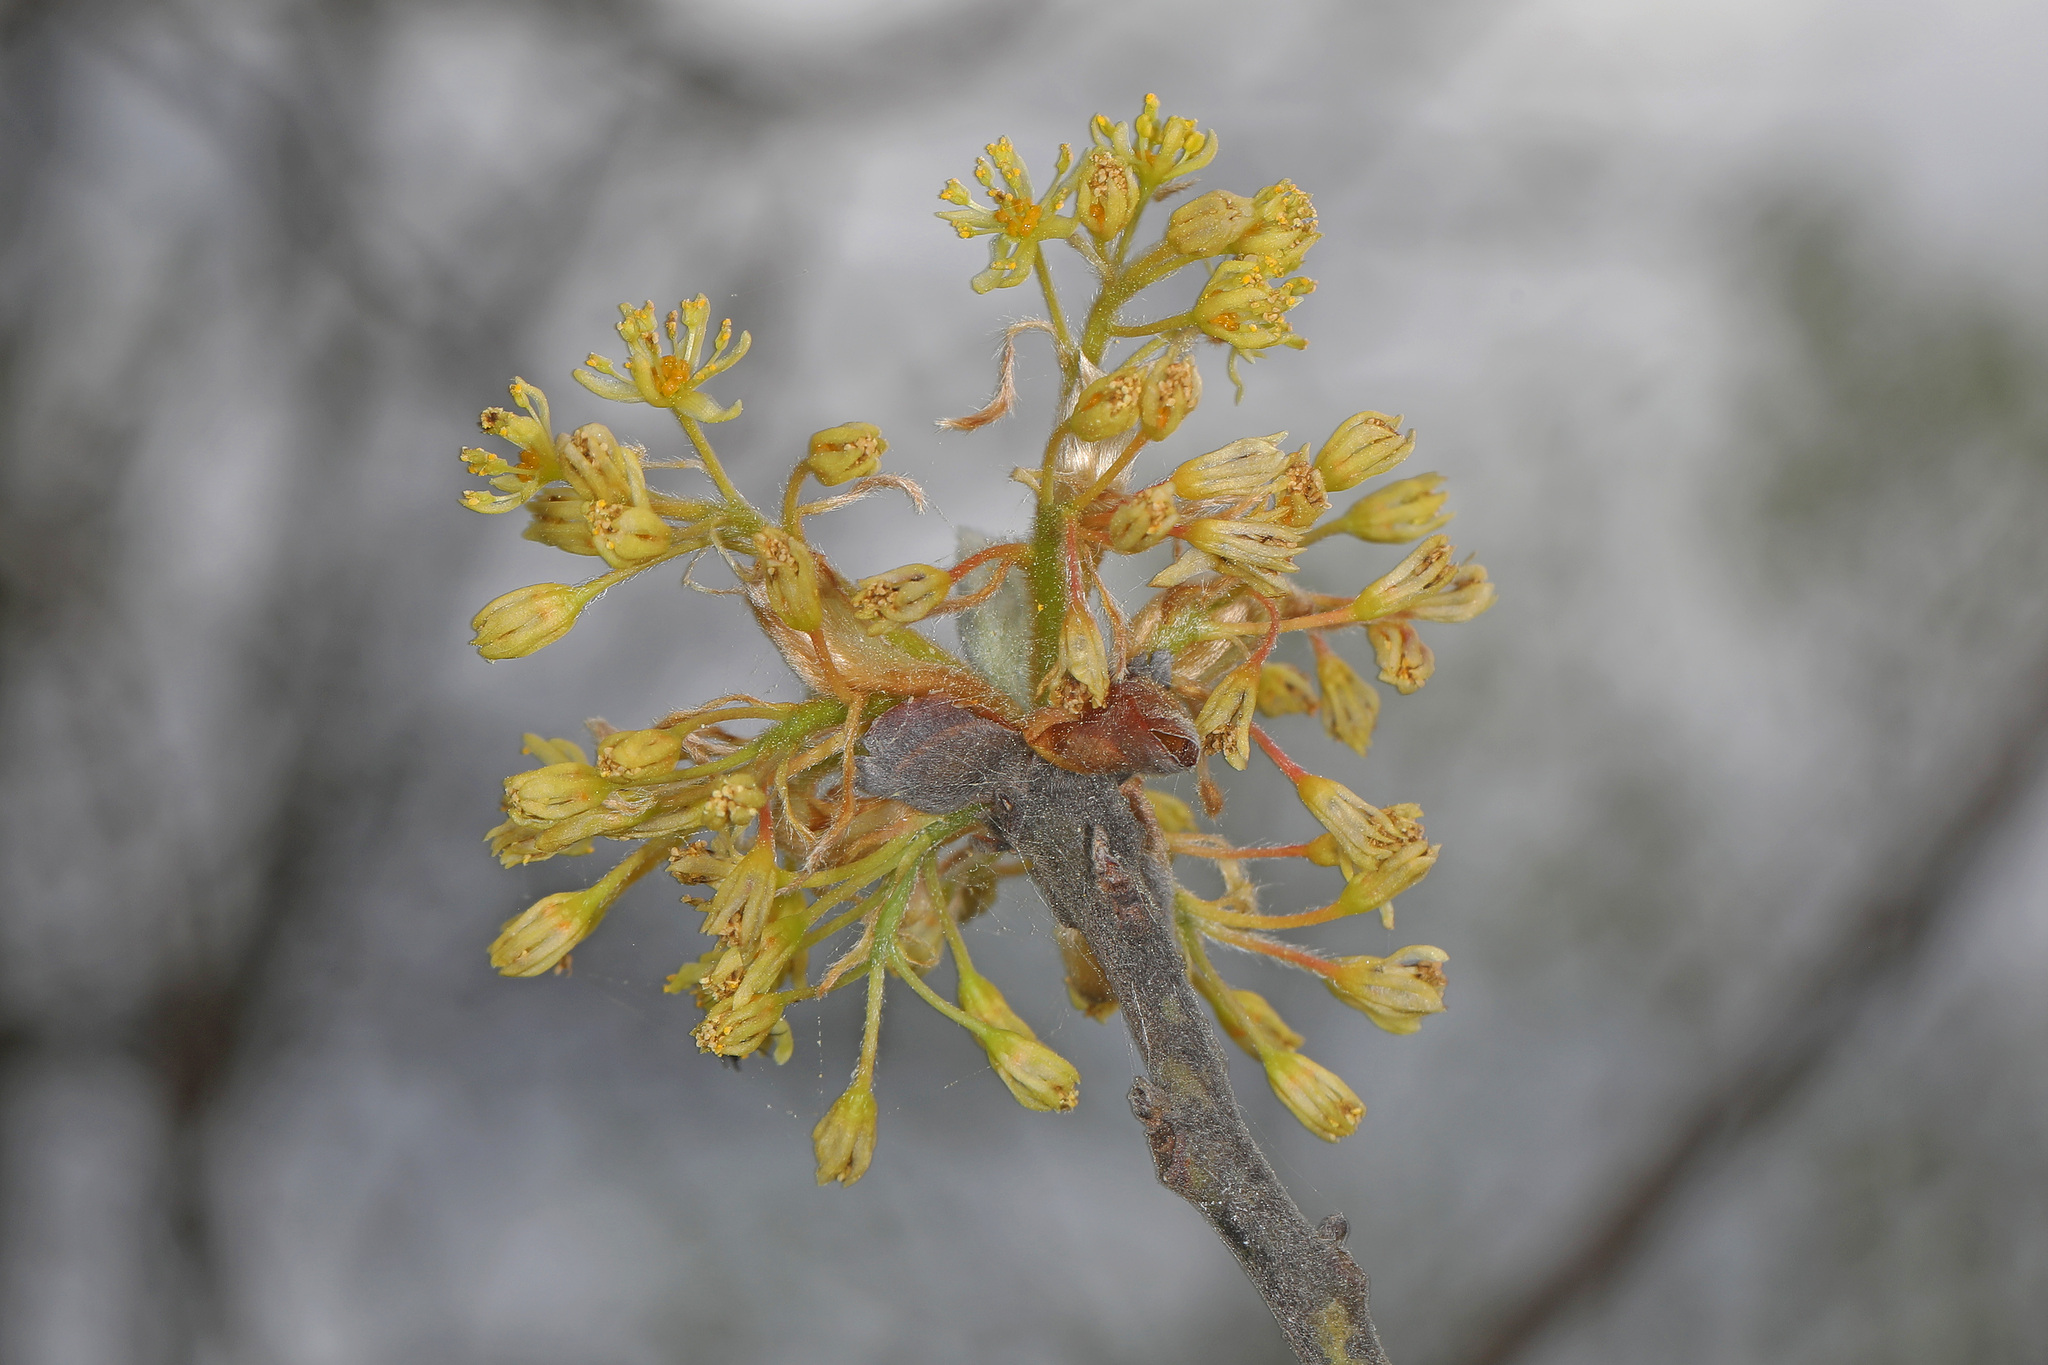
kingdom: Plantae
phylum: Tracheophyta
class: Magnoliopsida
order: Laurales
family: Lauraceae
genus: Sassafras
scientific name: Sassafras albidum
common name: Sassafras
